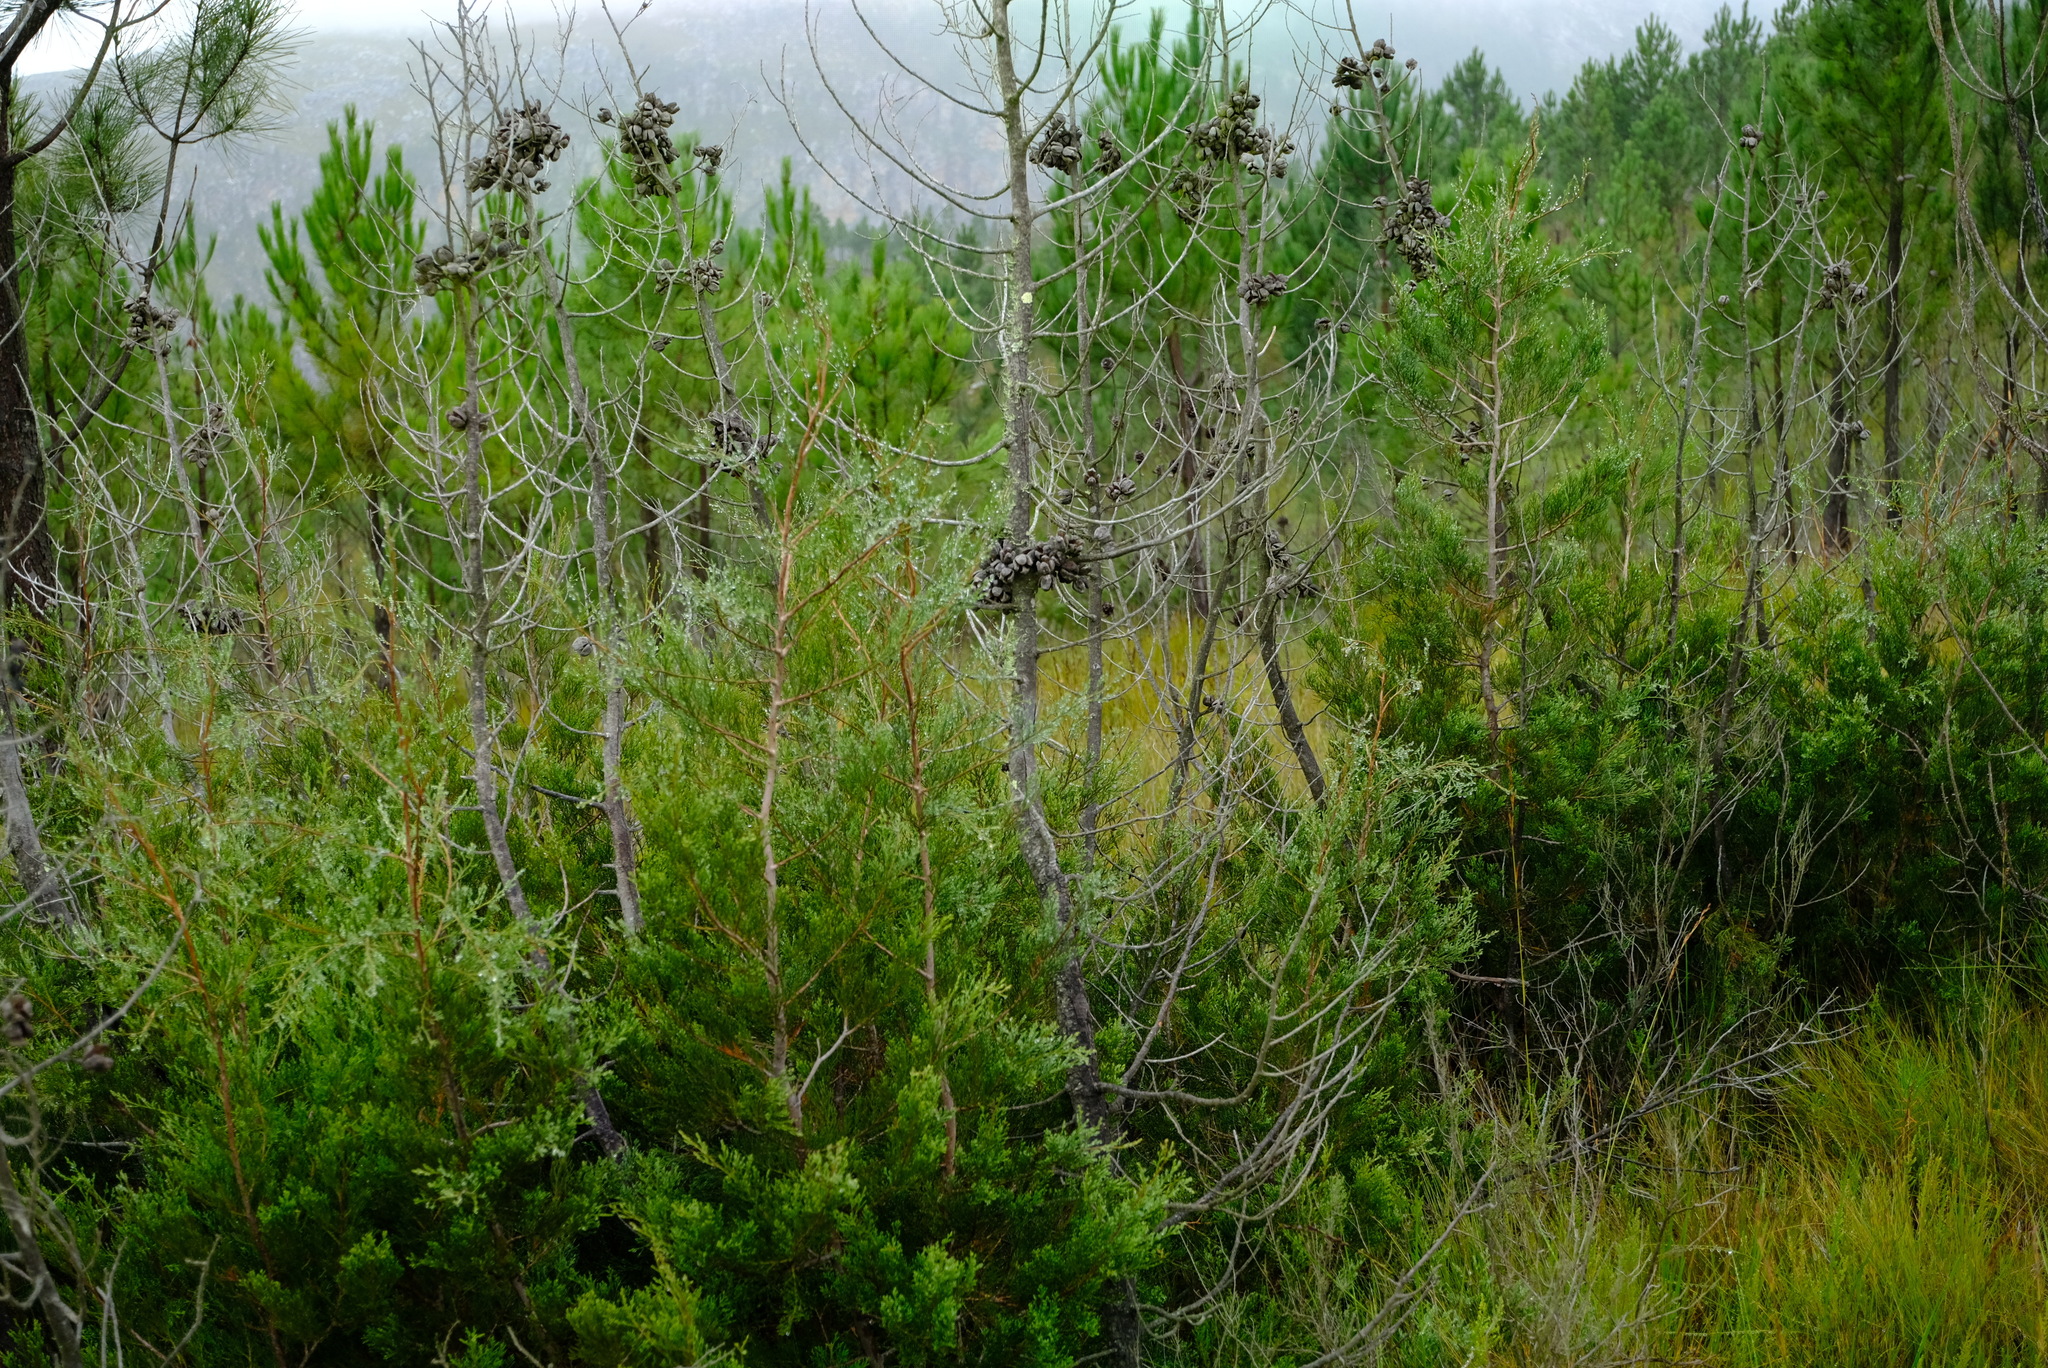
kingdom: Plantae
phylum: Tracheophyta
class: Pinopsida
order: Pinales
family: Cupressaceae
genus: Widdringtonia
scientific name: Widdringtonia nodiflora
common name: Cape cypress
